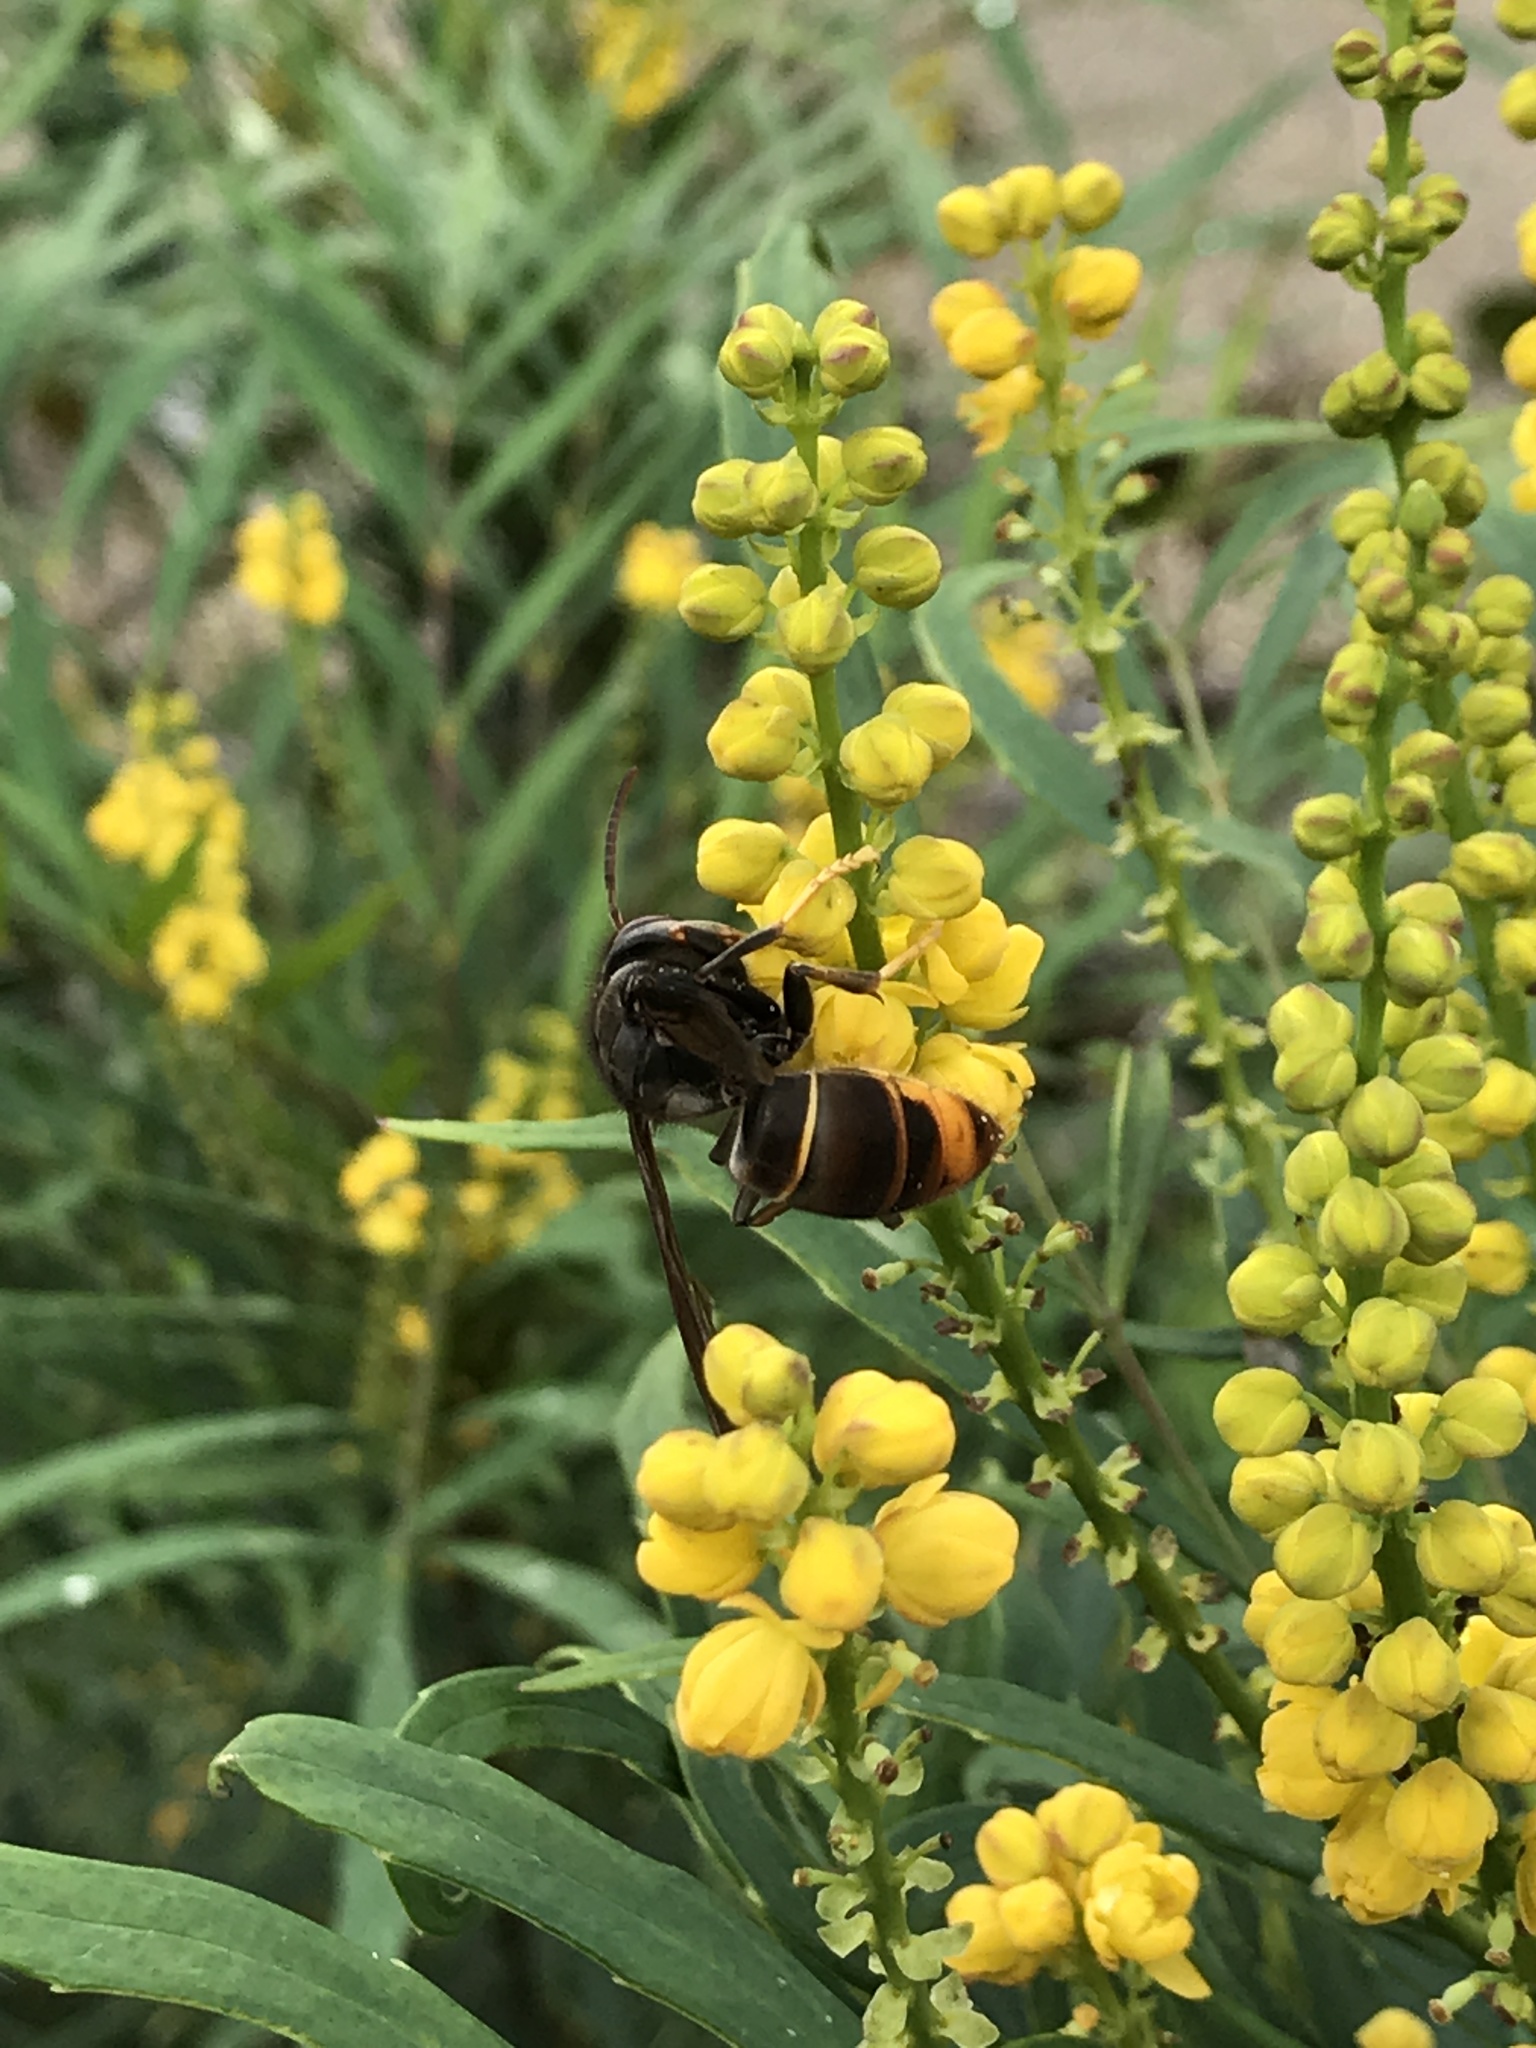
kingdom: Animalia
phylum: Arthropoda
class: Insecta
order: Hymenoptera
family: Vespidae
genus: Vespa
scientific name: Vespa velutina
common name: Asian hornet
